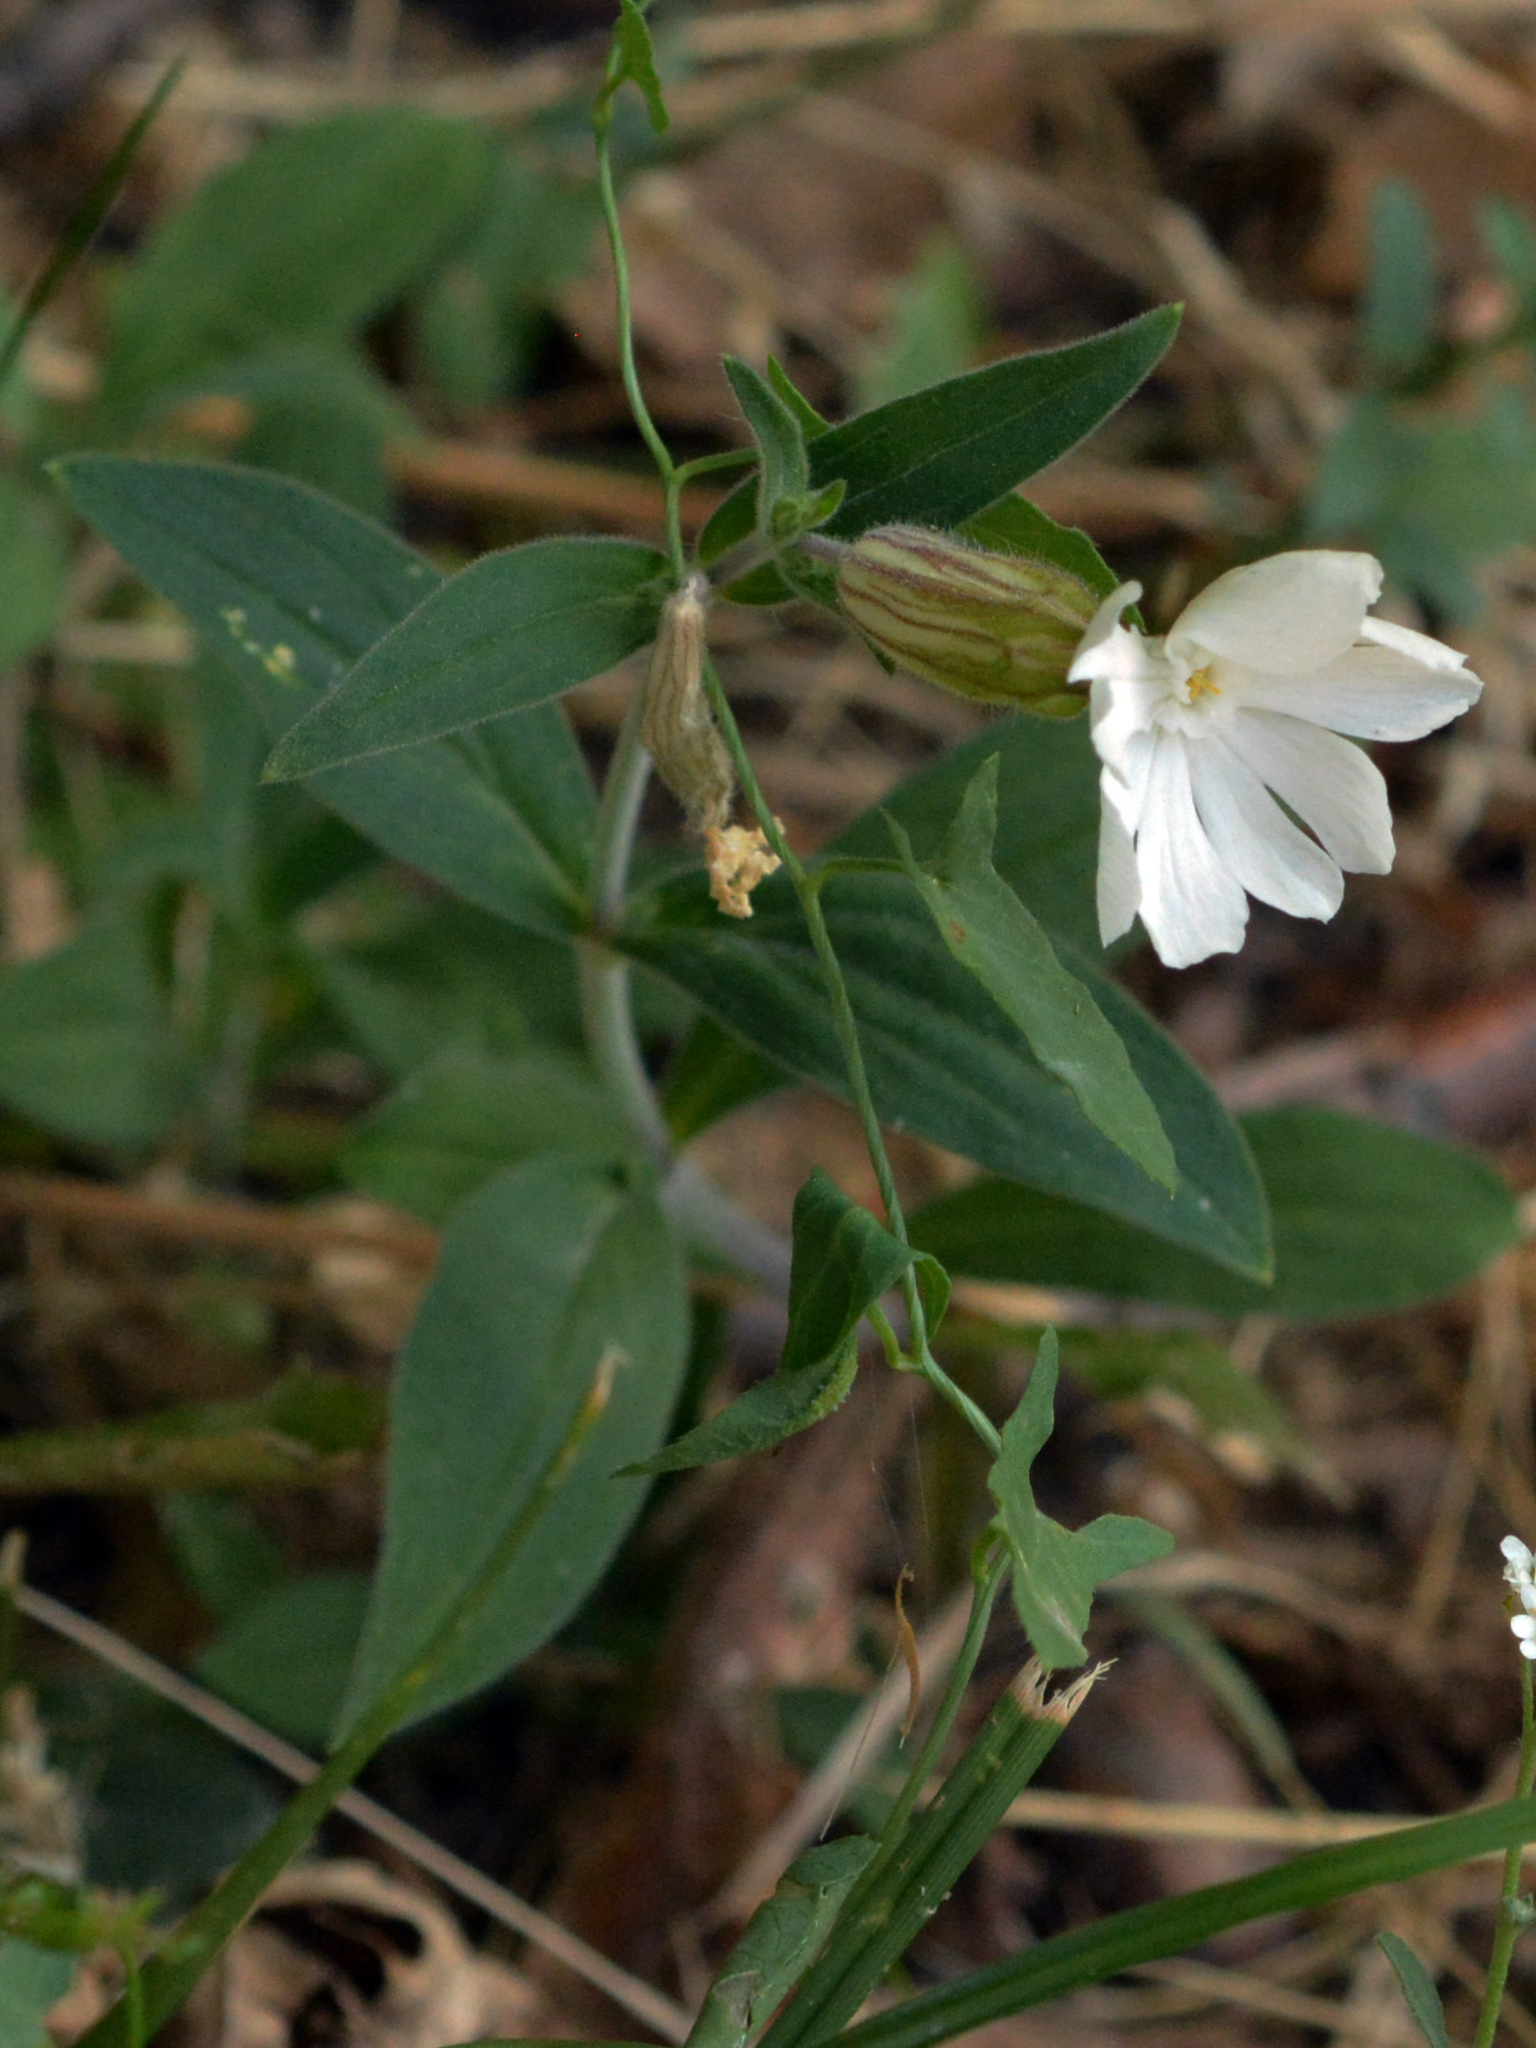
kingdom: Plantae
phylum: Tracheophyta
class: Magnoliopsida
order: Caryophyllales
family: Caryophyllaceae
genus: Silene
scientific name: Silene latifolia
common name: White campion
